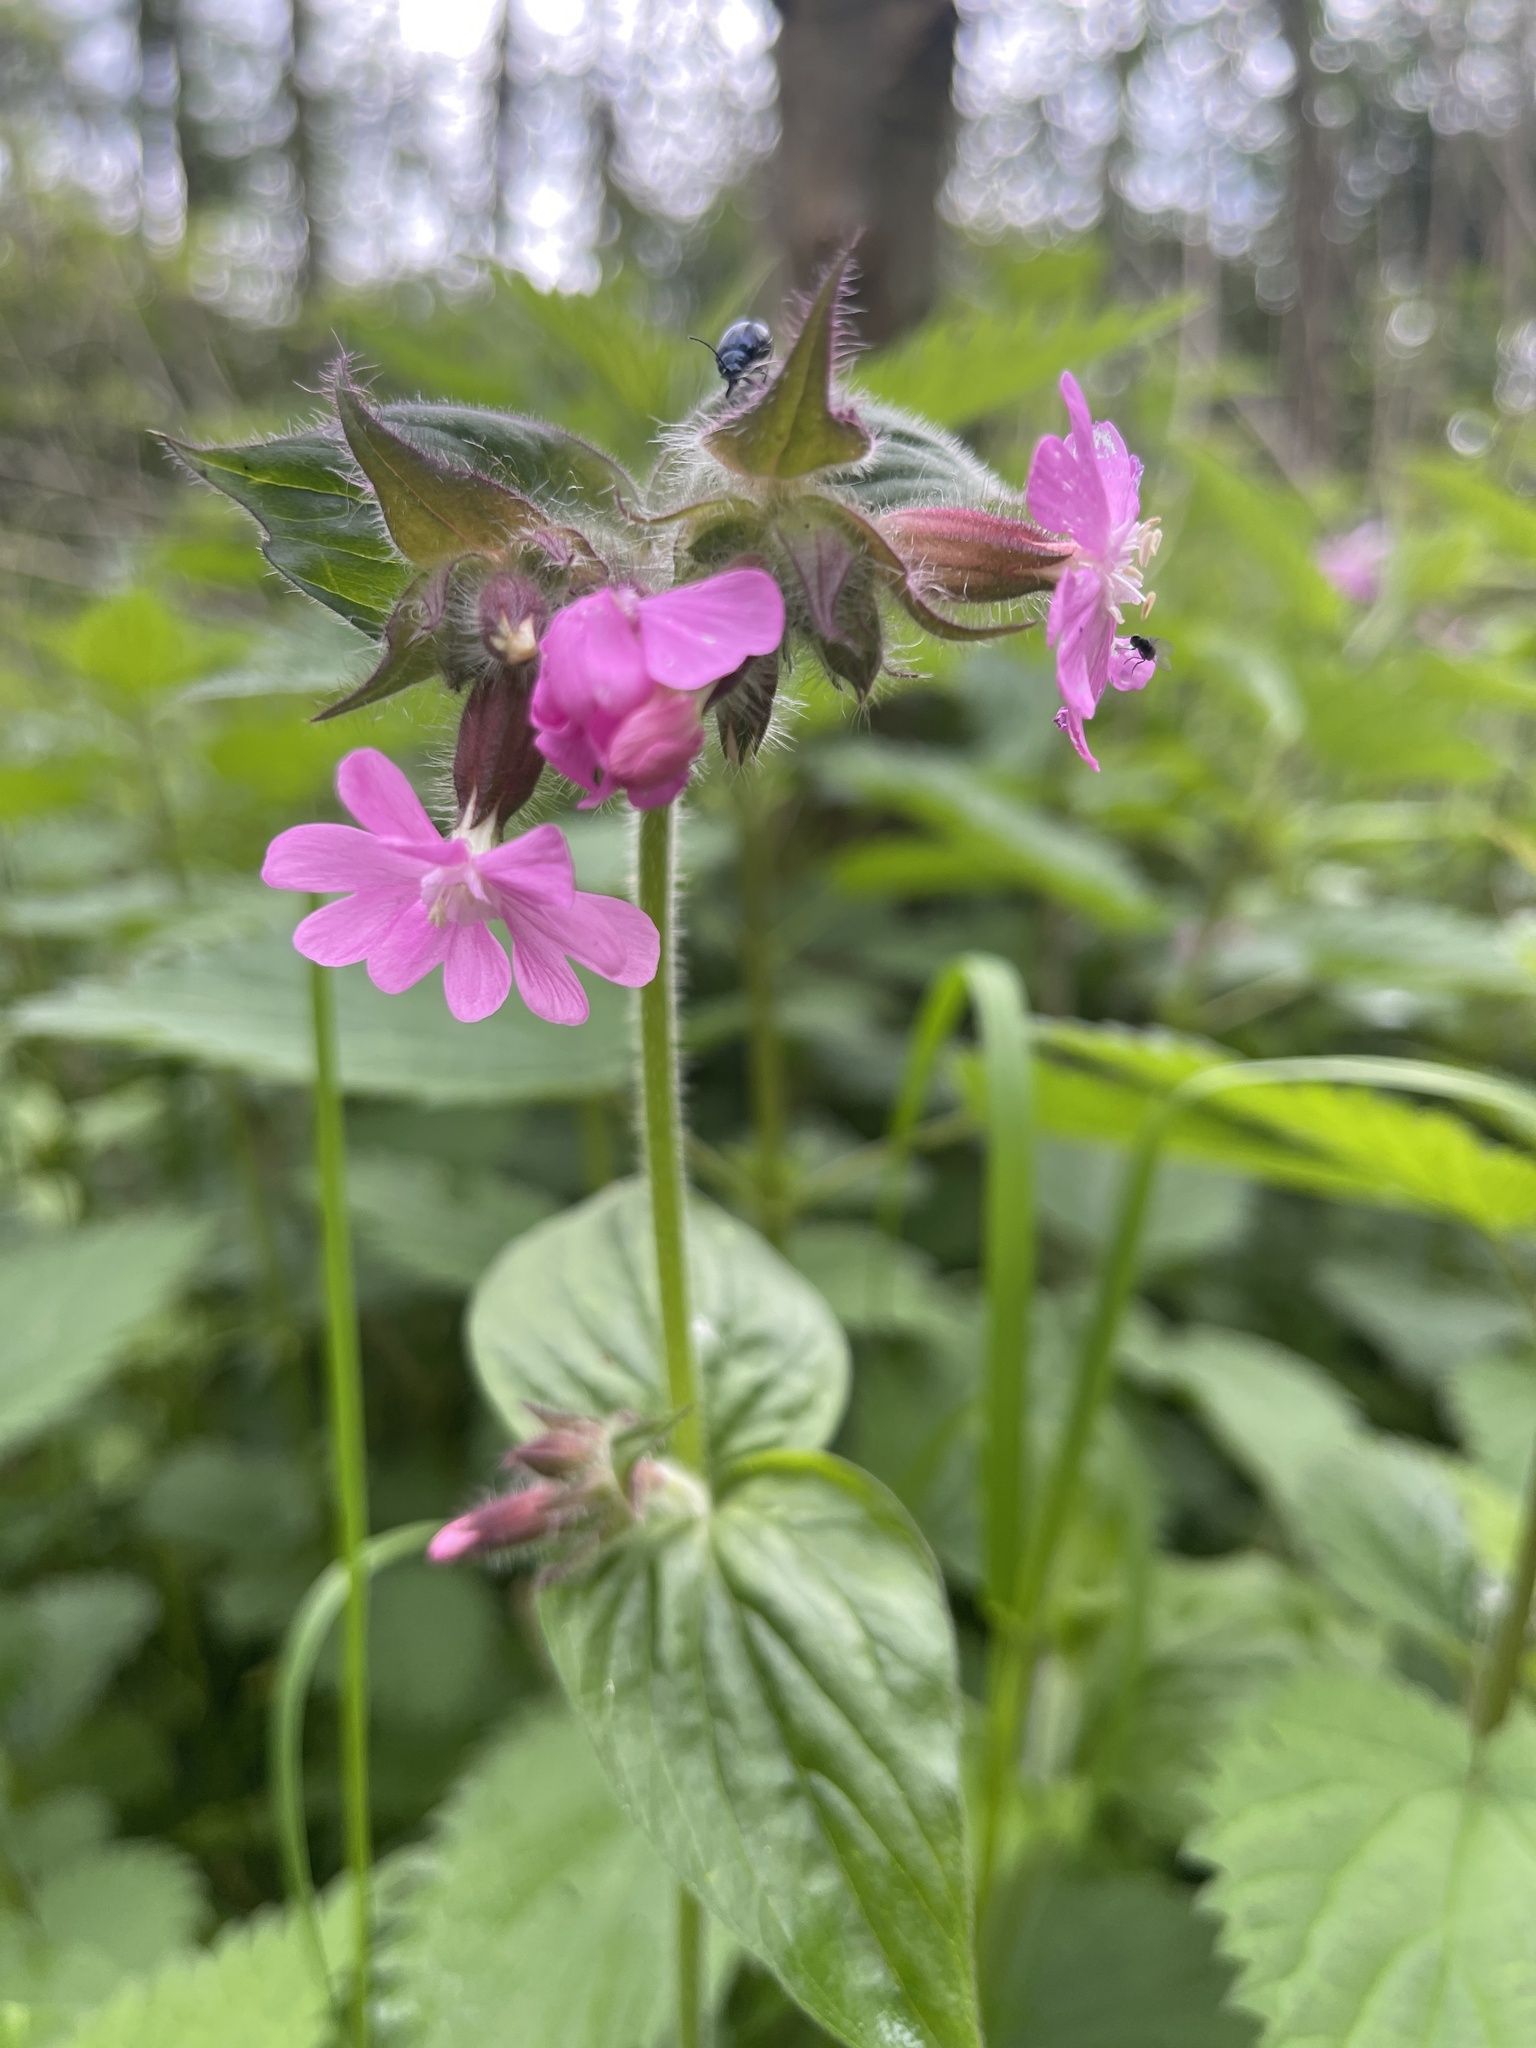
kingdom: Plantae
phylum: Tracheophyta
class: Magnoliopsida
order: Caryophyllales
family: Caryophyllaceae
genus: Silene
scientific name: Silene dioica
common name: Red campion
